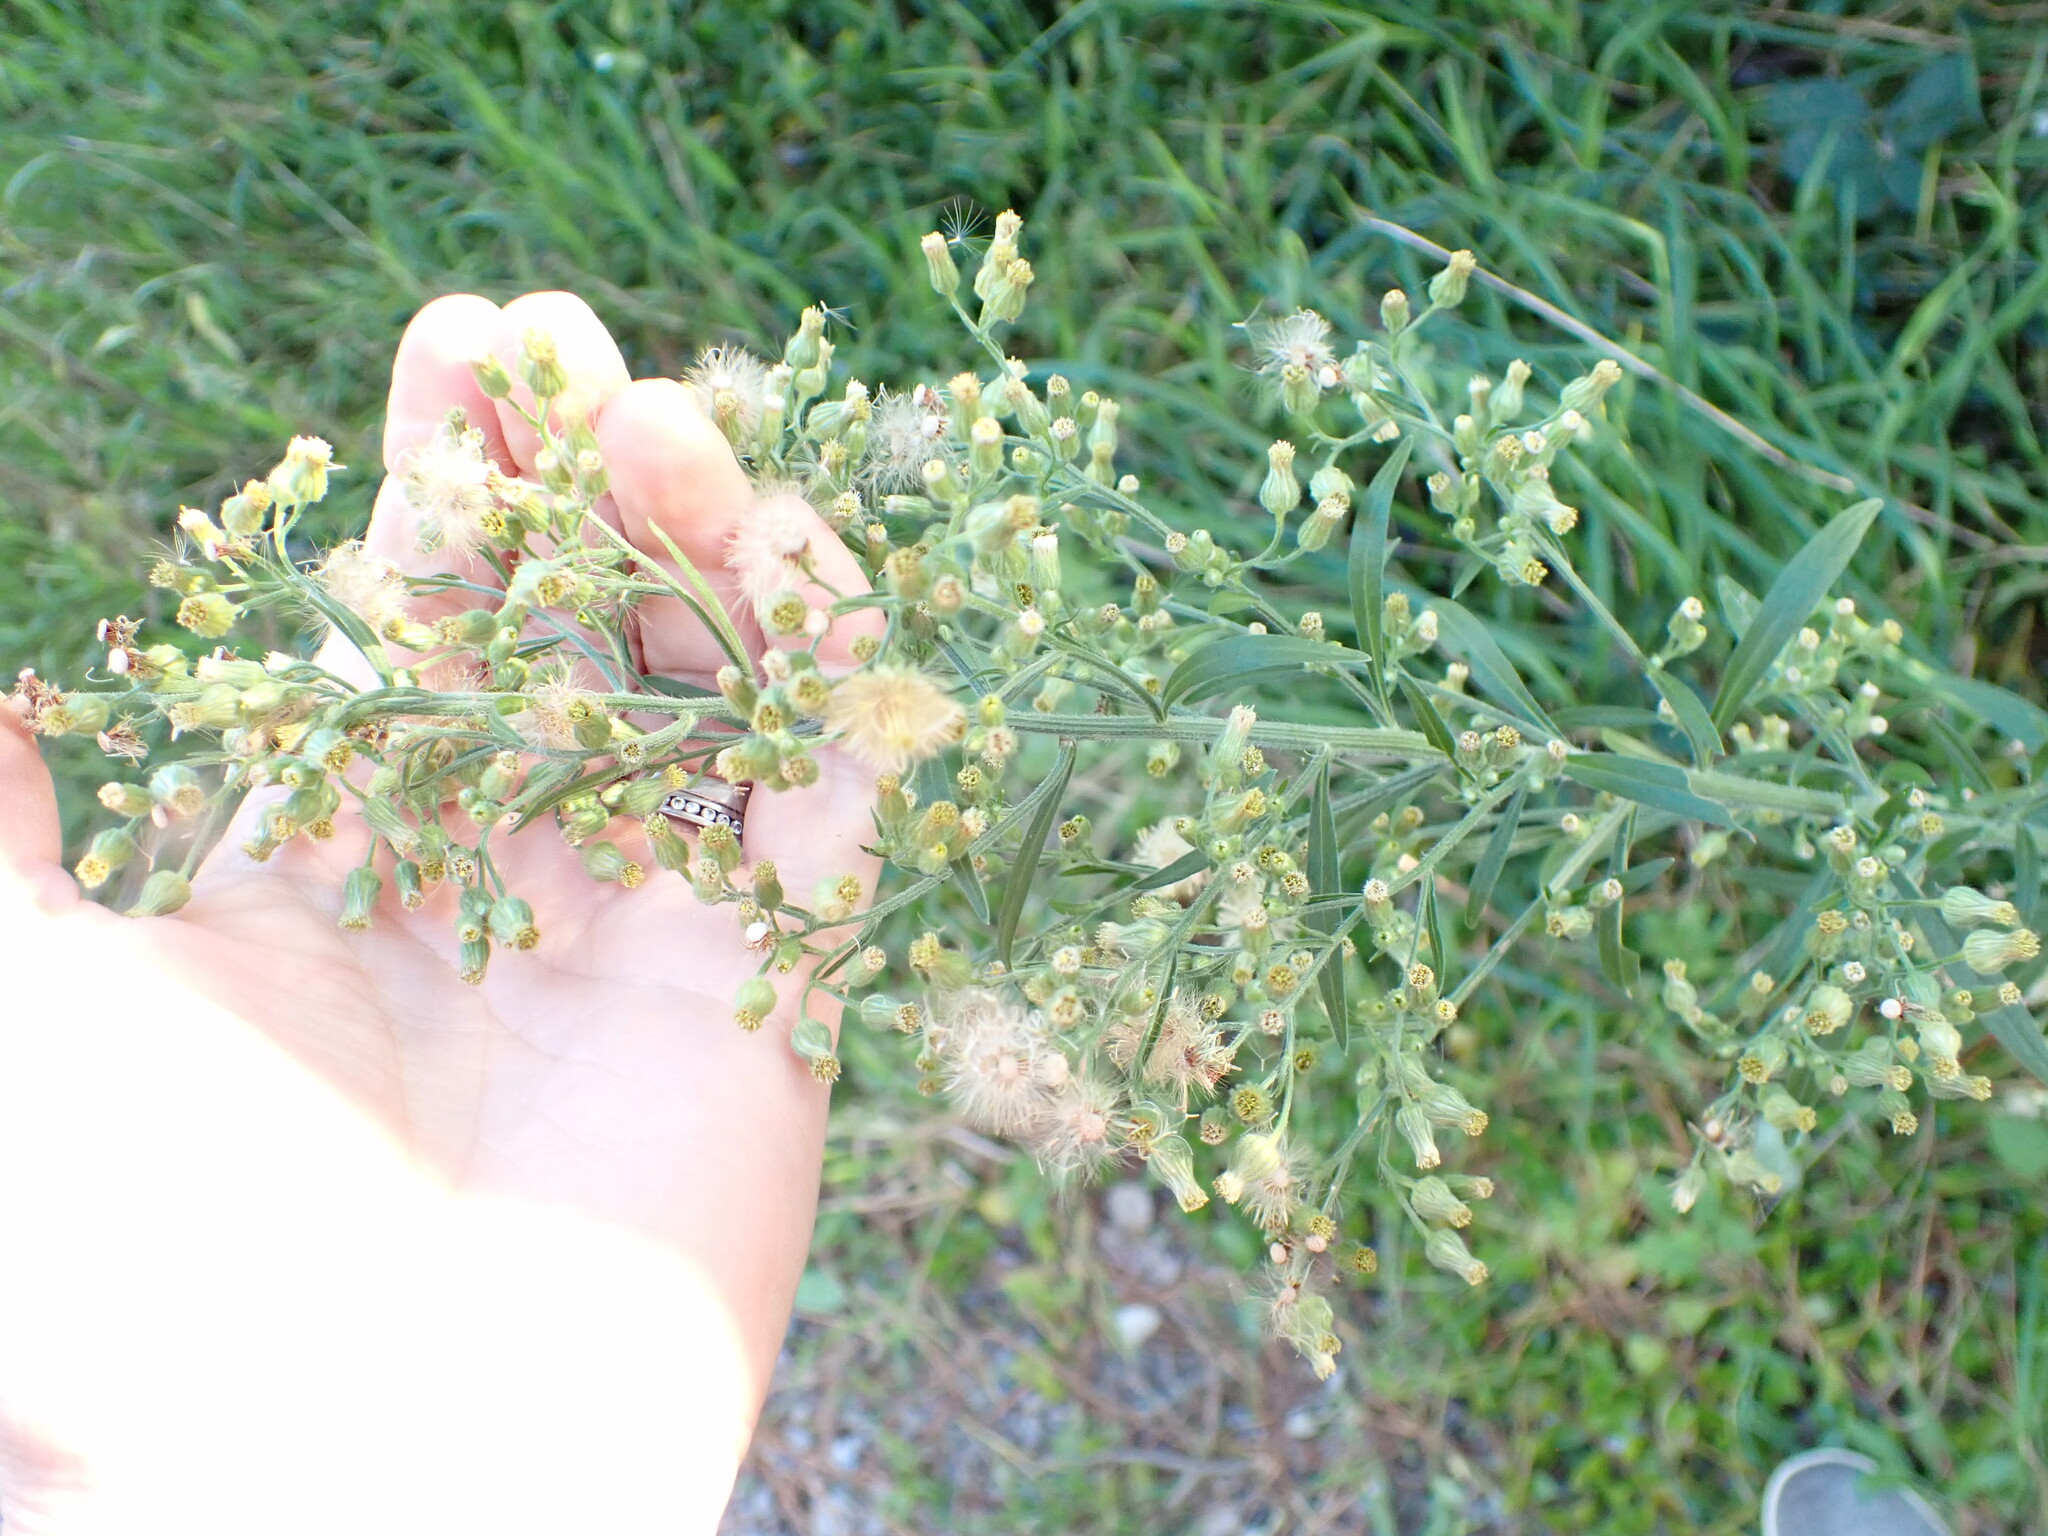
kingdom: Plantae
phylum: Tracheophyta
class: Magnoliopsida
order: Asterales
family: Asteraceae
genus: Erigeron
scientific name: Erigeron sumatrensis
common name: Daisy
